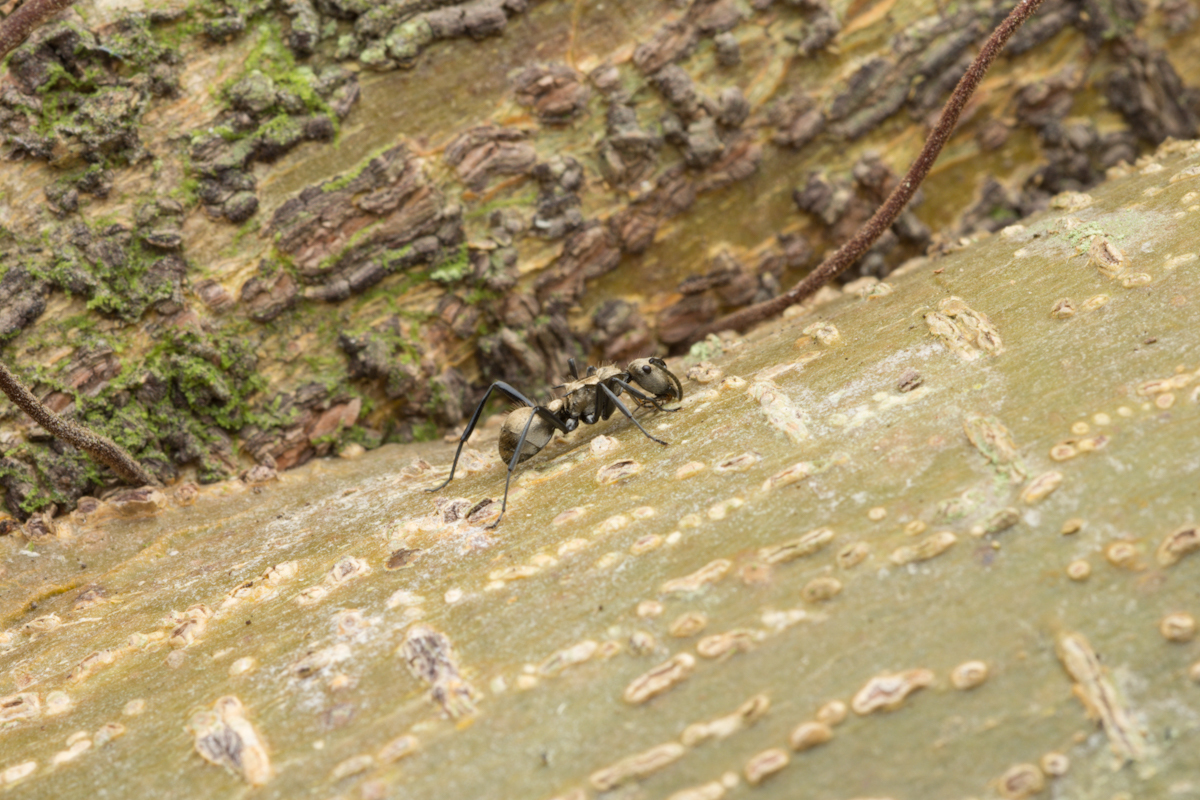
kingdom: Animalia
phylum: Arthropoda
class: Insecta
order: Hymenoptera
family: Formicidae
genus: Polyrhachis
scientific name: Polyrhachis cupreata
